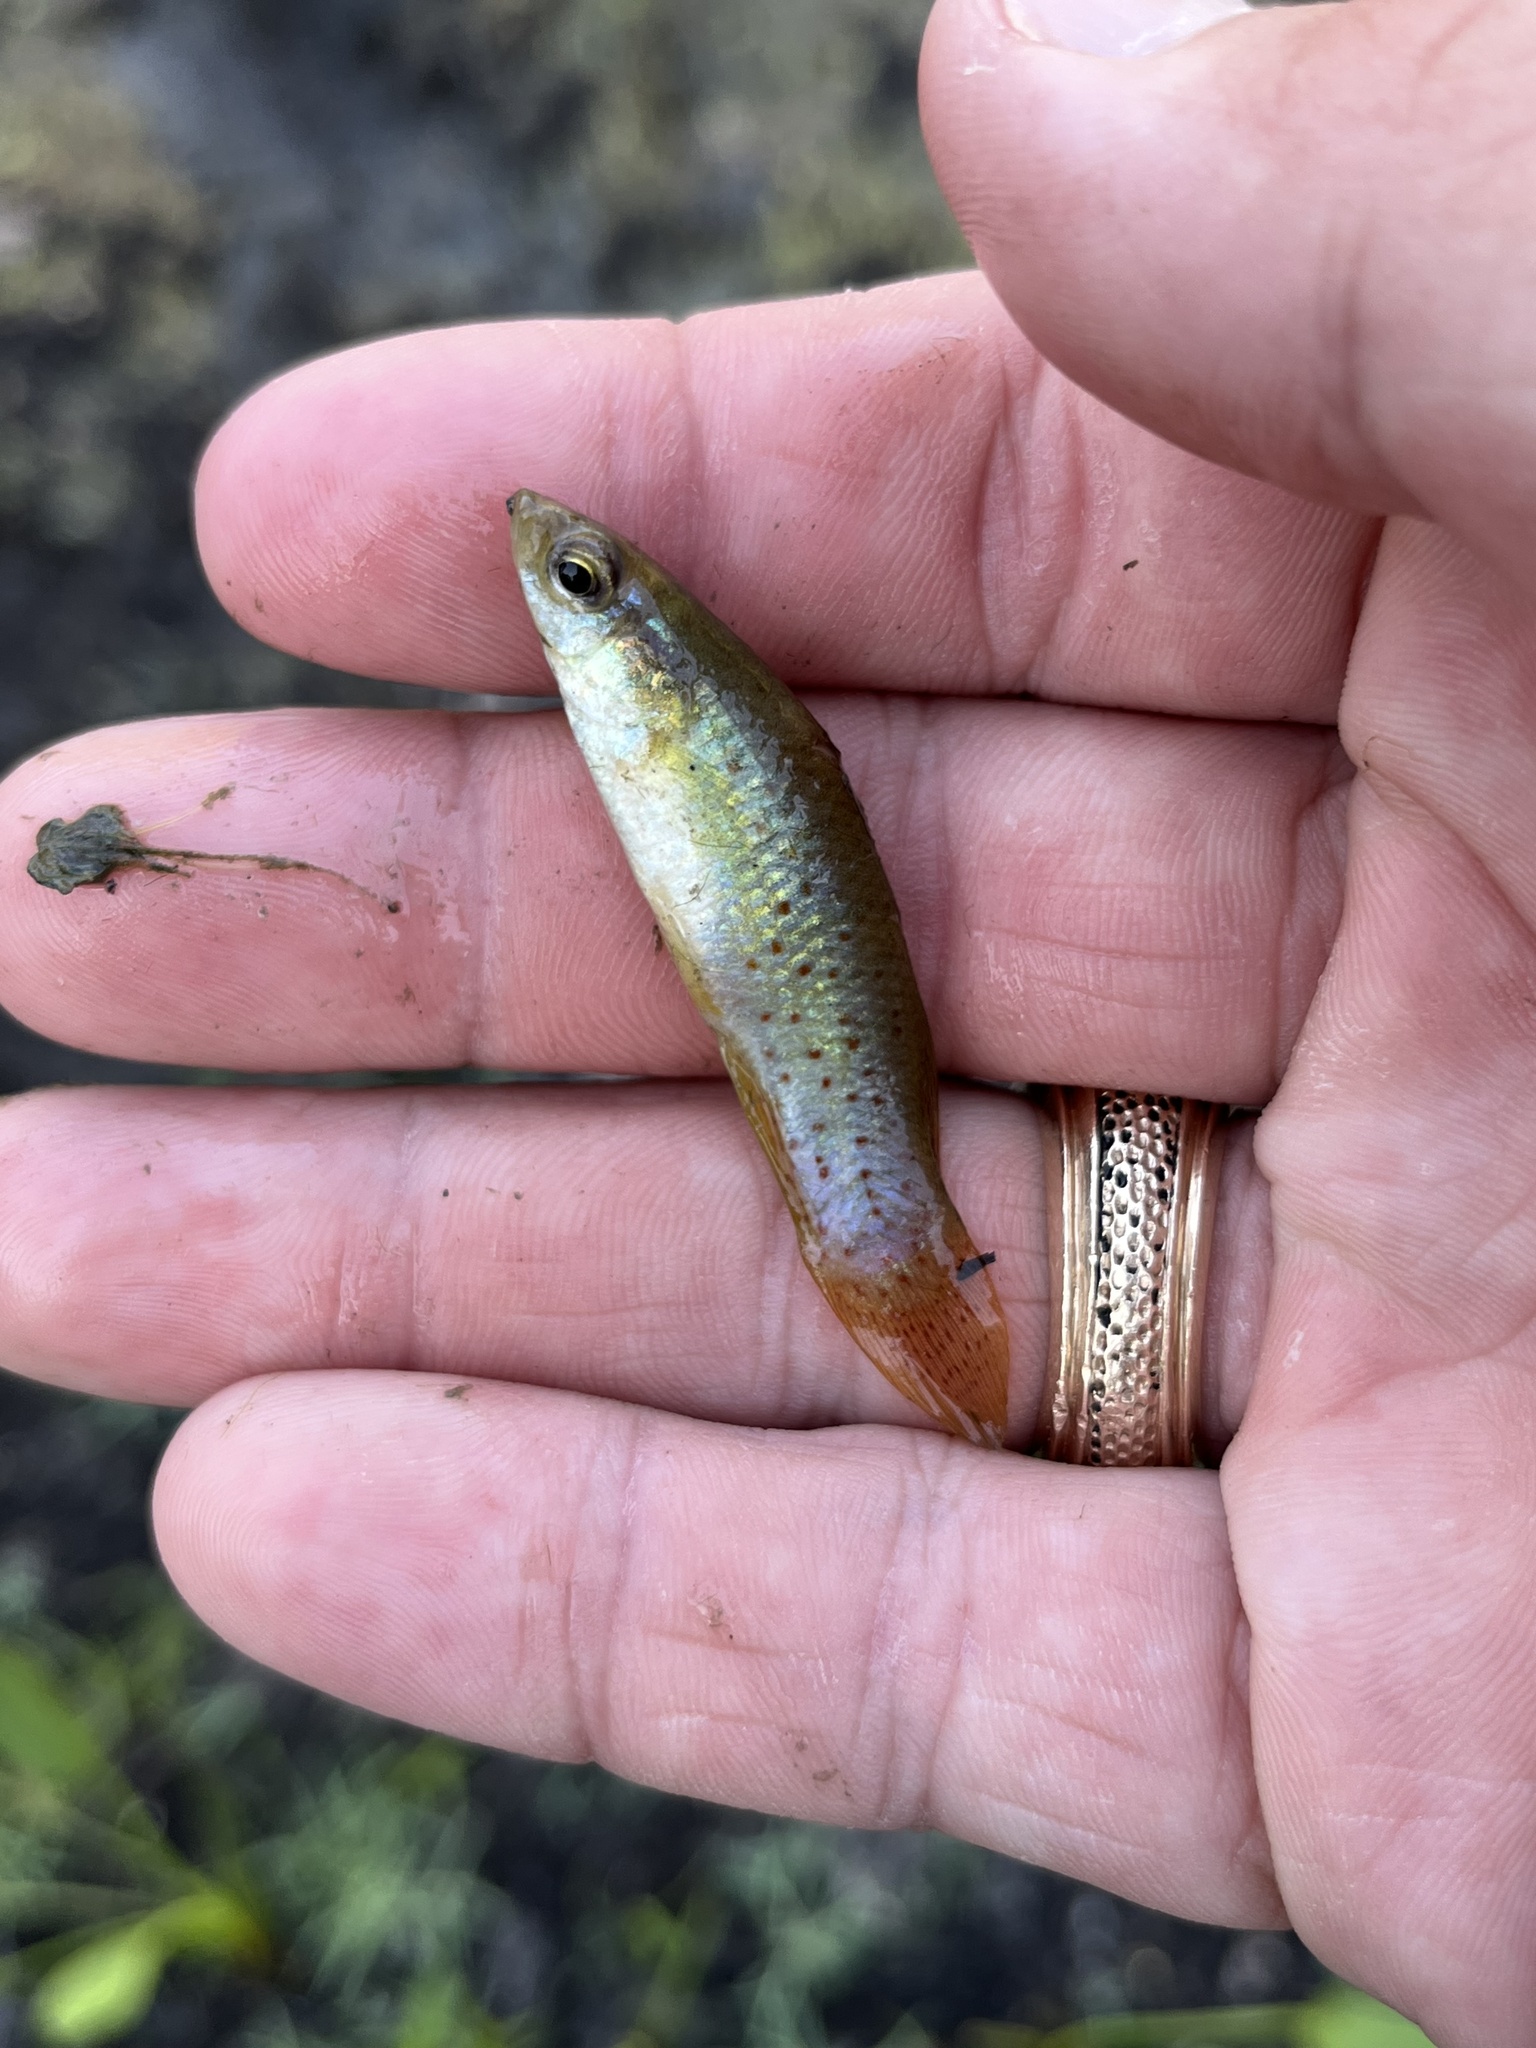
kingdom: Animalia
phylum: Chordata
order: Cyprinodontiformes
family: Fundulidae
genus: Fundulus
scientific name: Fundulus chrysotus
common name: Golden topminnow
